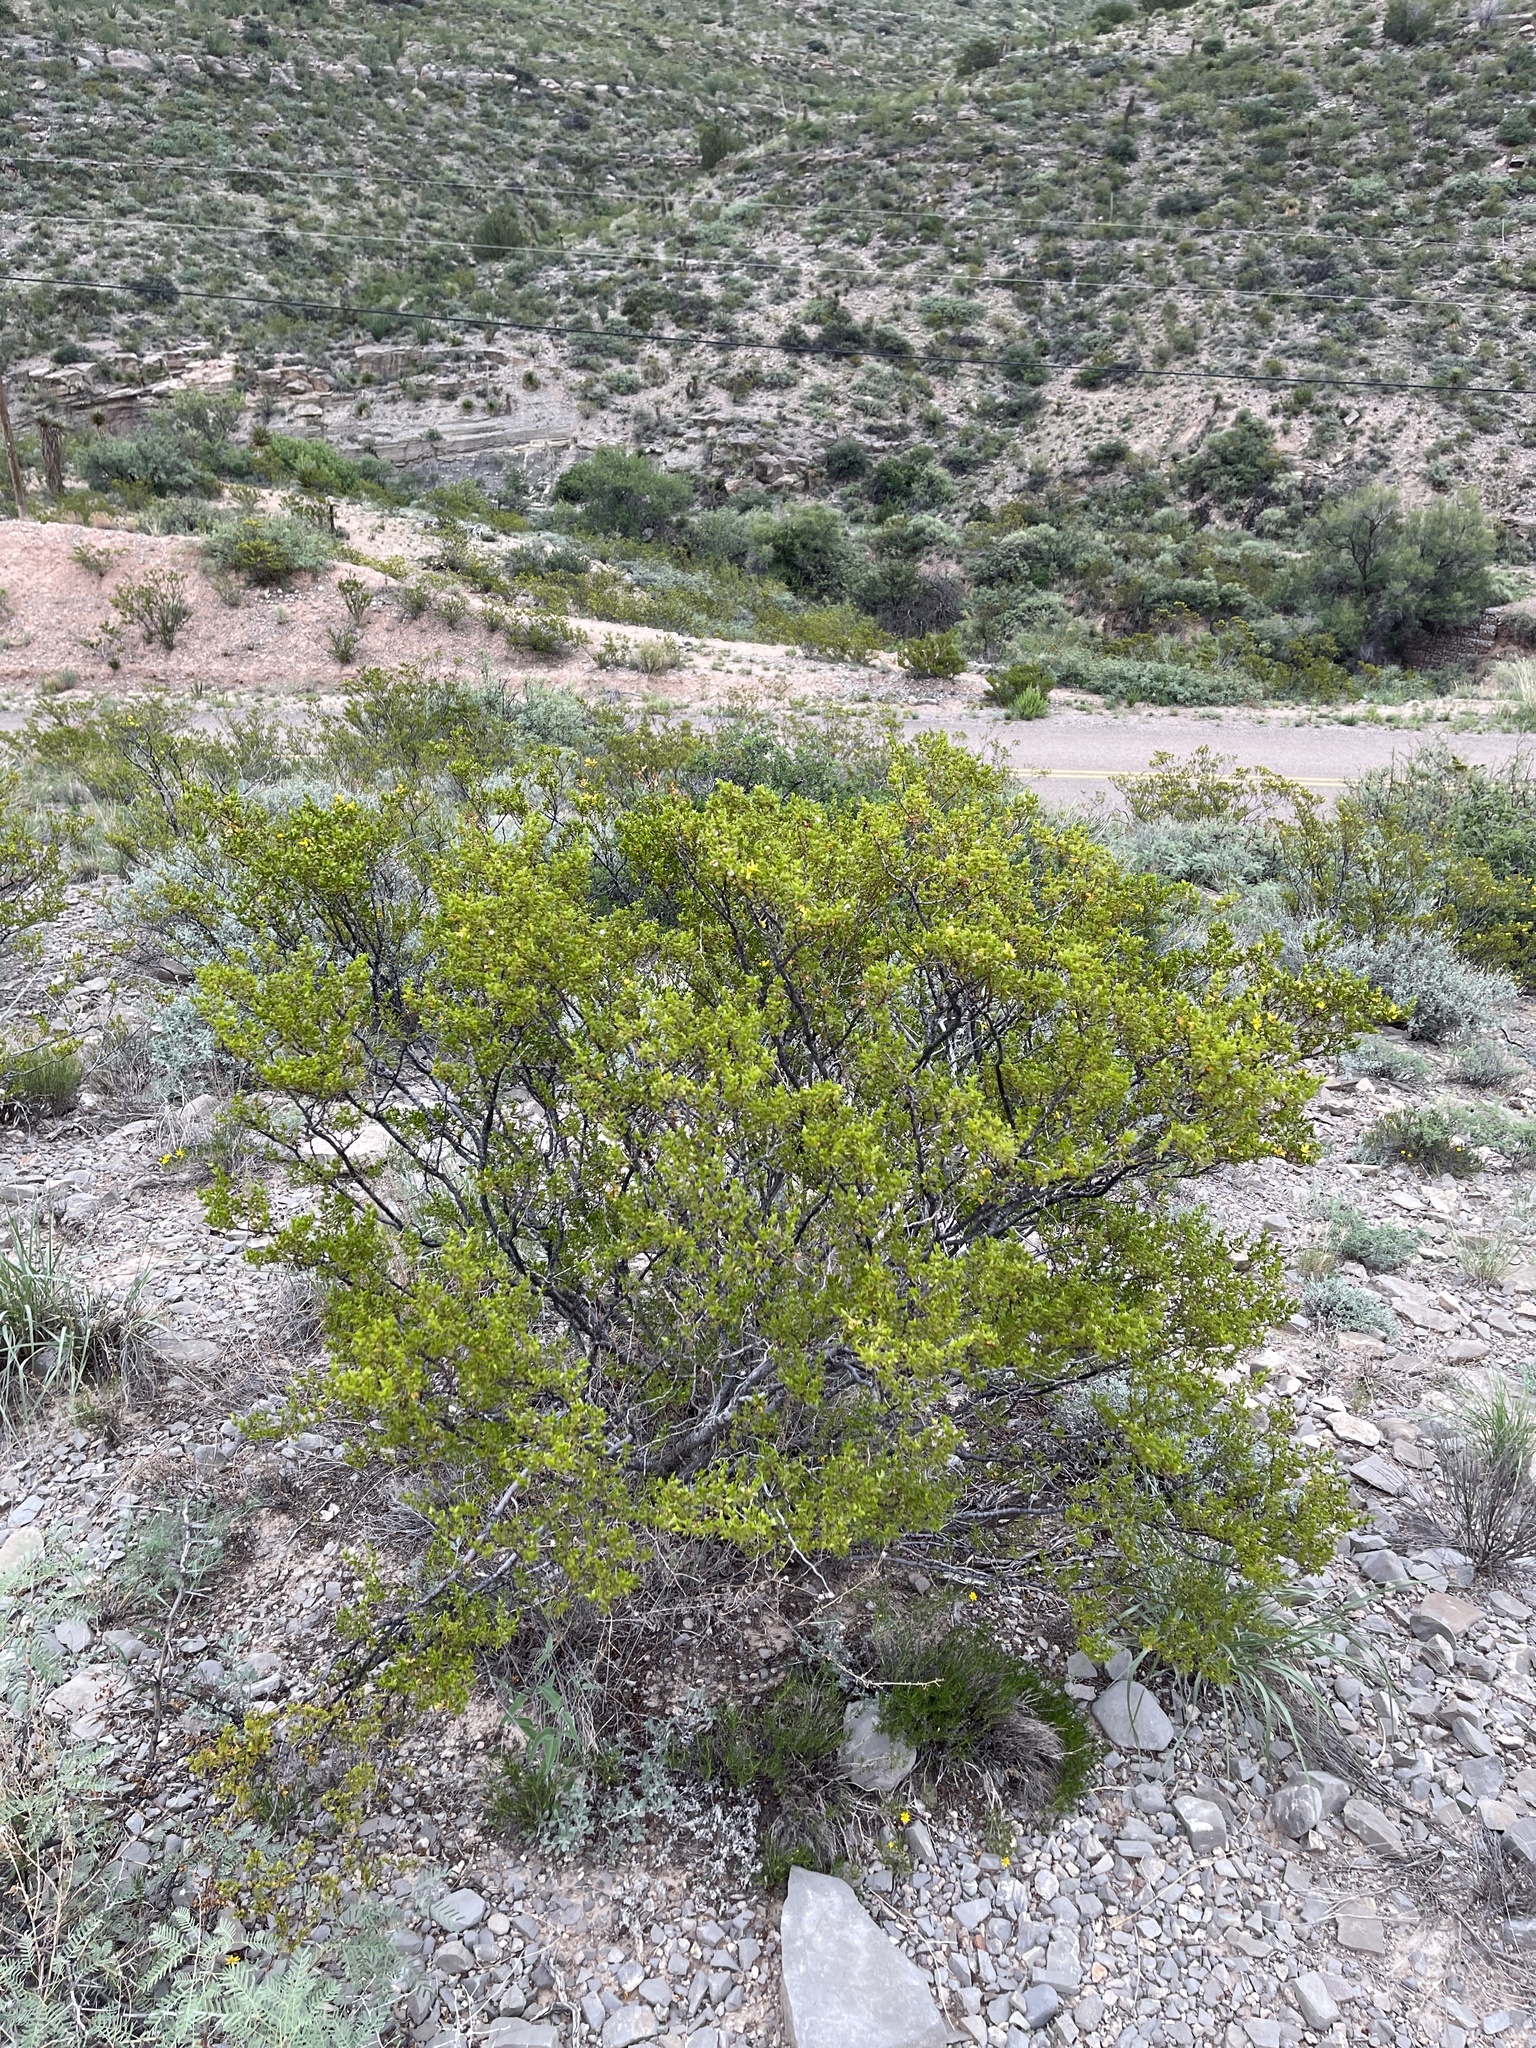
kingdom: Plantae
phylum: Tracheophyta
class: Magnoliopsida
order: Zygophyllales
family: Zygophyllaceae
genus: Larrea
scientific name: Larrea tridentata
